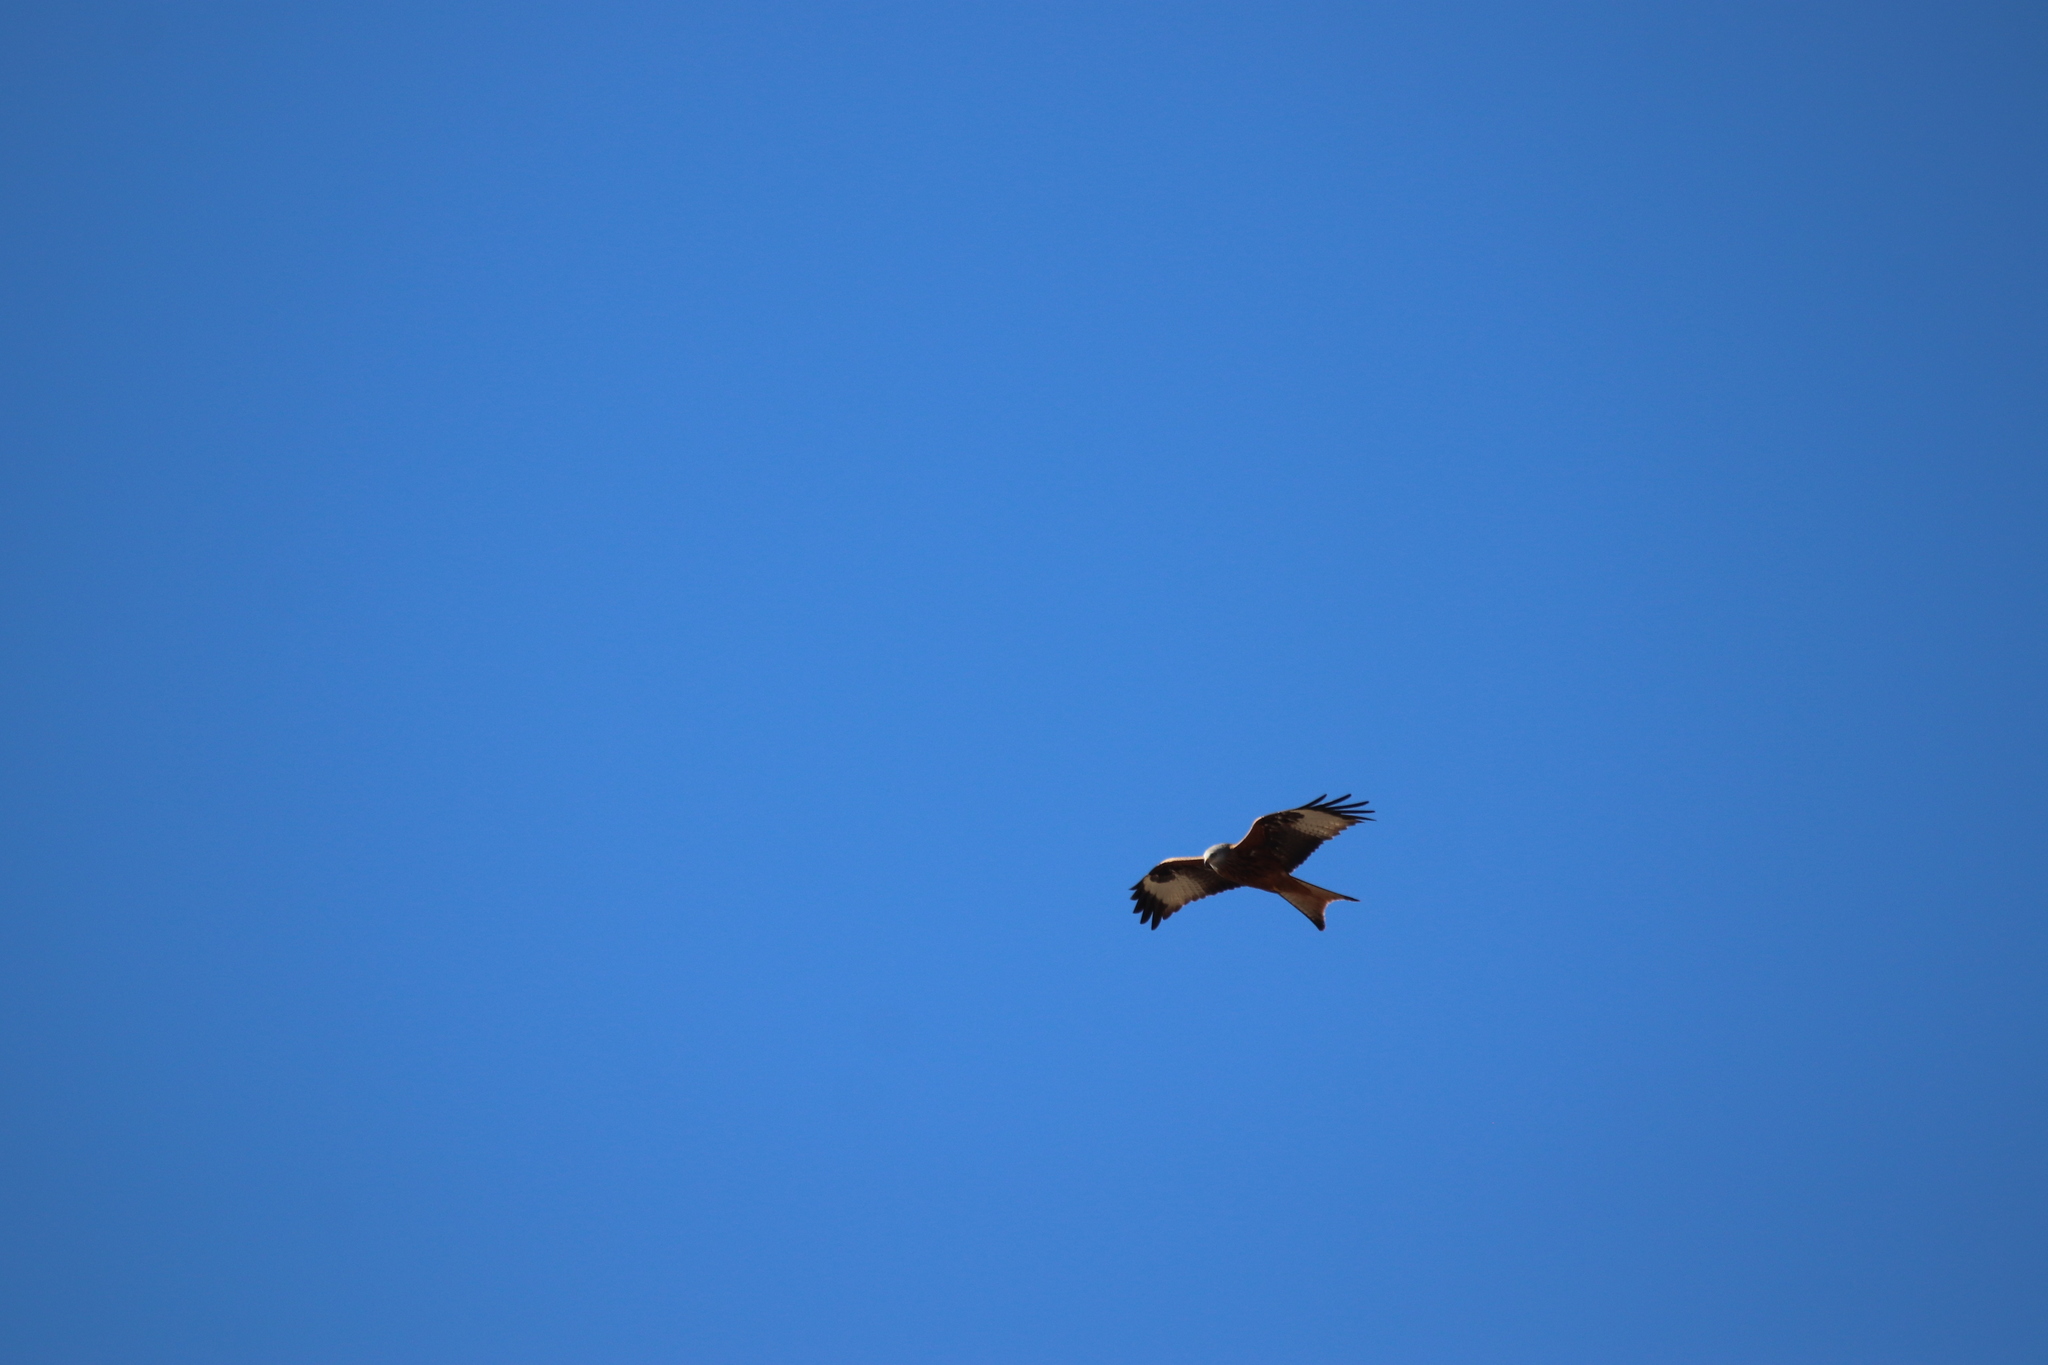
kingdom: Animalia
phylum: Chordata
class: Aves
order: Accipitriformes
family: Accipitridae
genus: Milvus
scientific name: Milvus milvus
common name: Red kite
